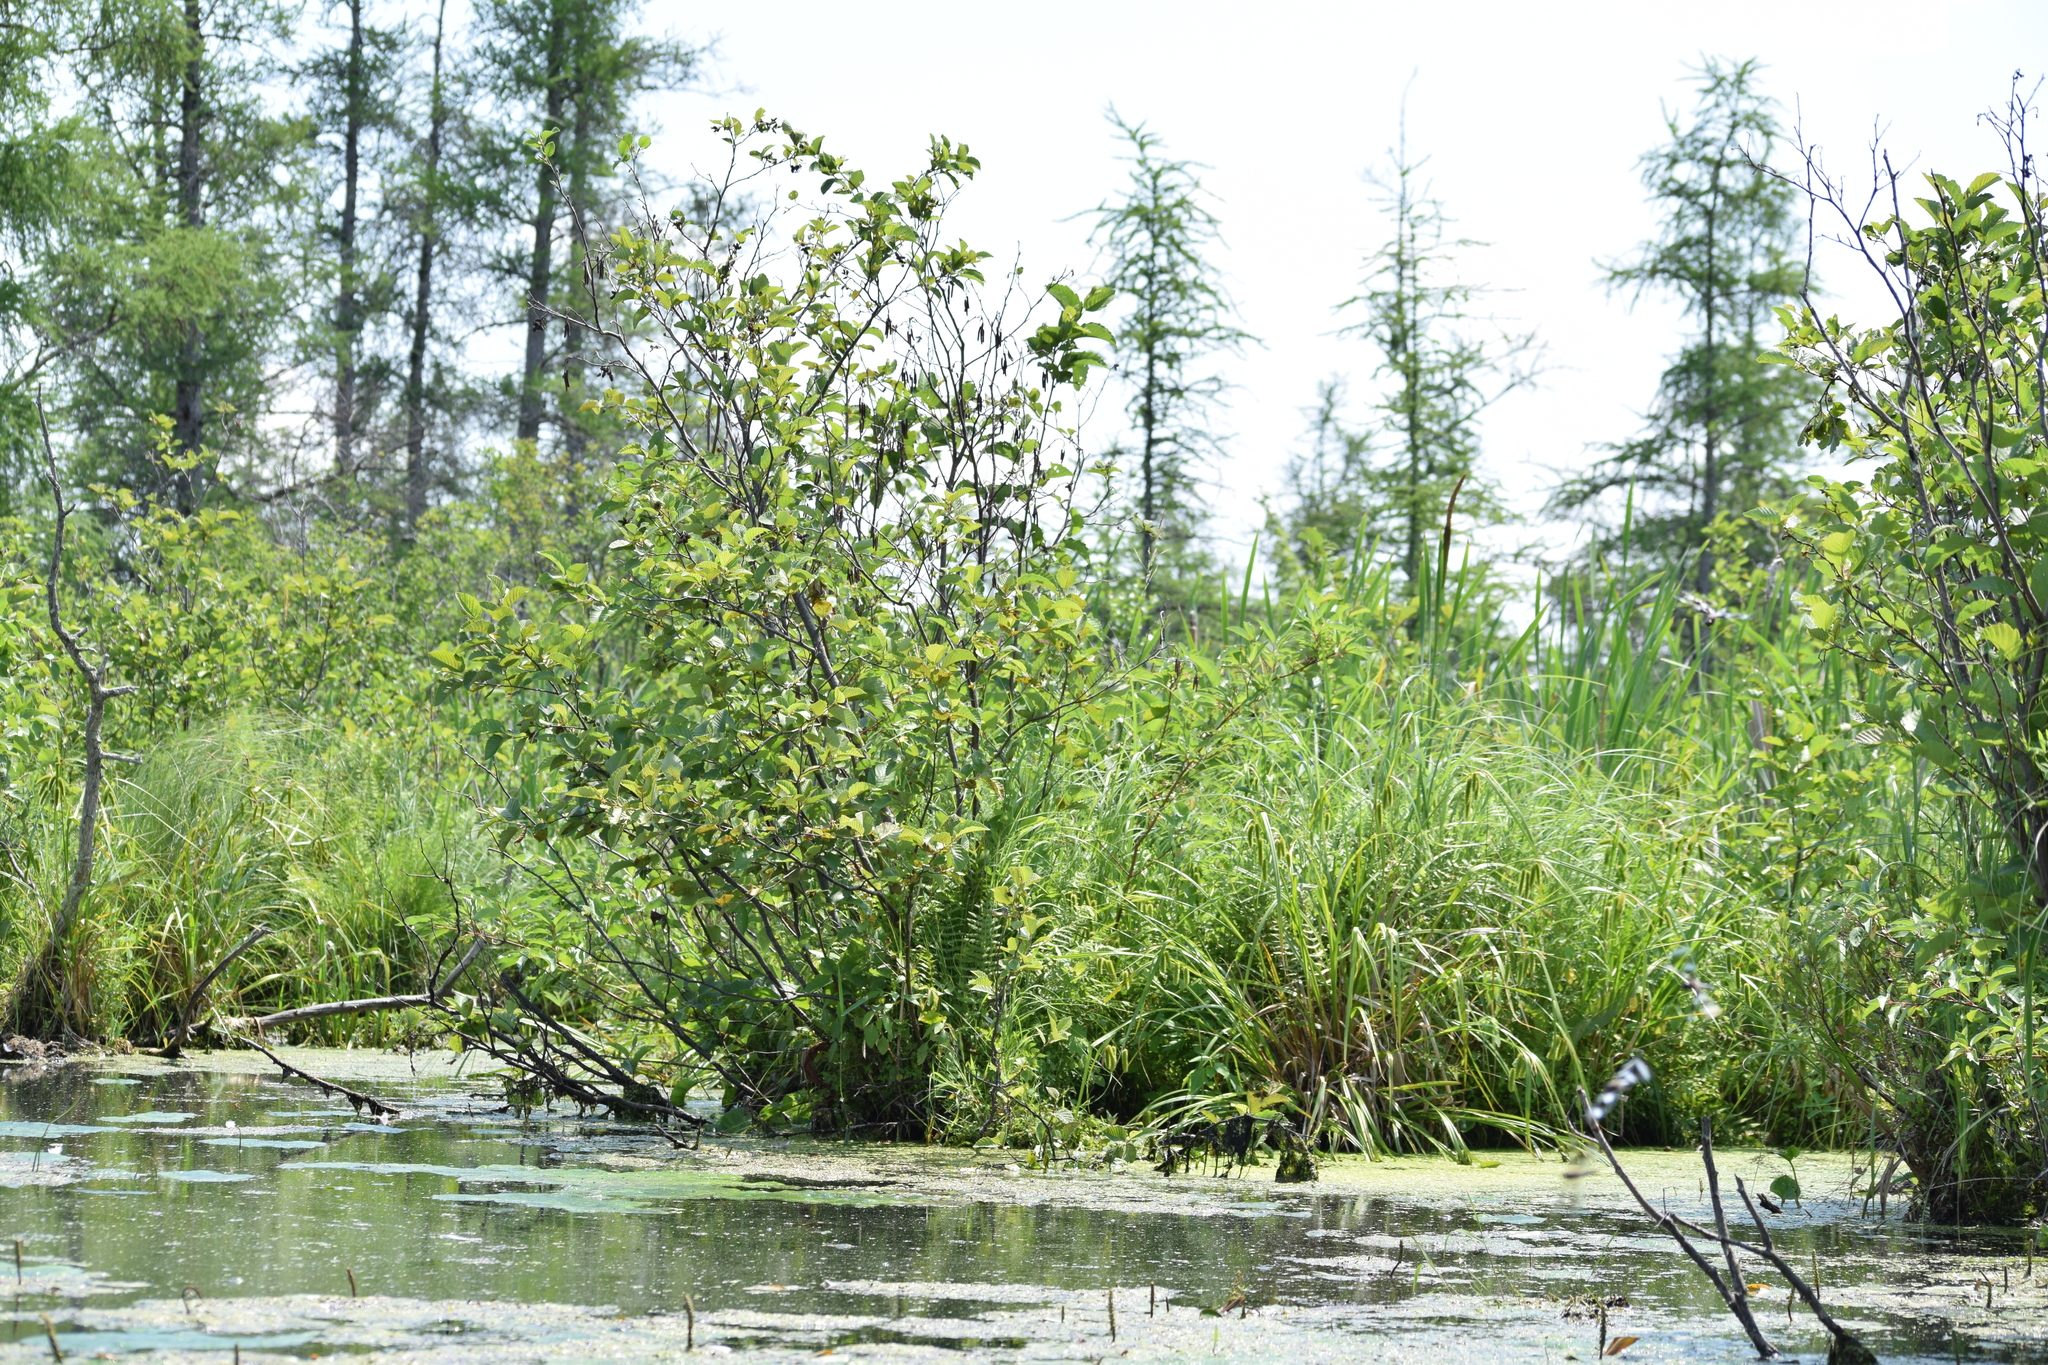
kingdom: Plantae
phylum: Tracheophyta
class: Magnoliopsida
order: Fagales
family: Betulaceae
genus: Alnus
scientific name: Alnus incana
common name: Grey alder
